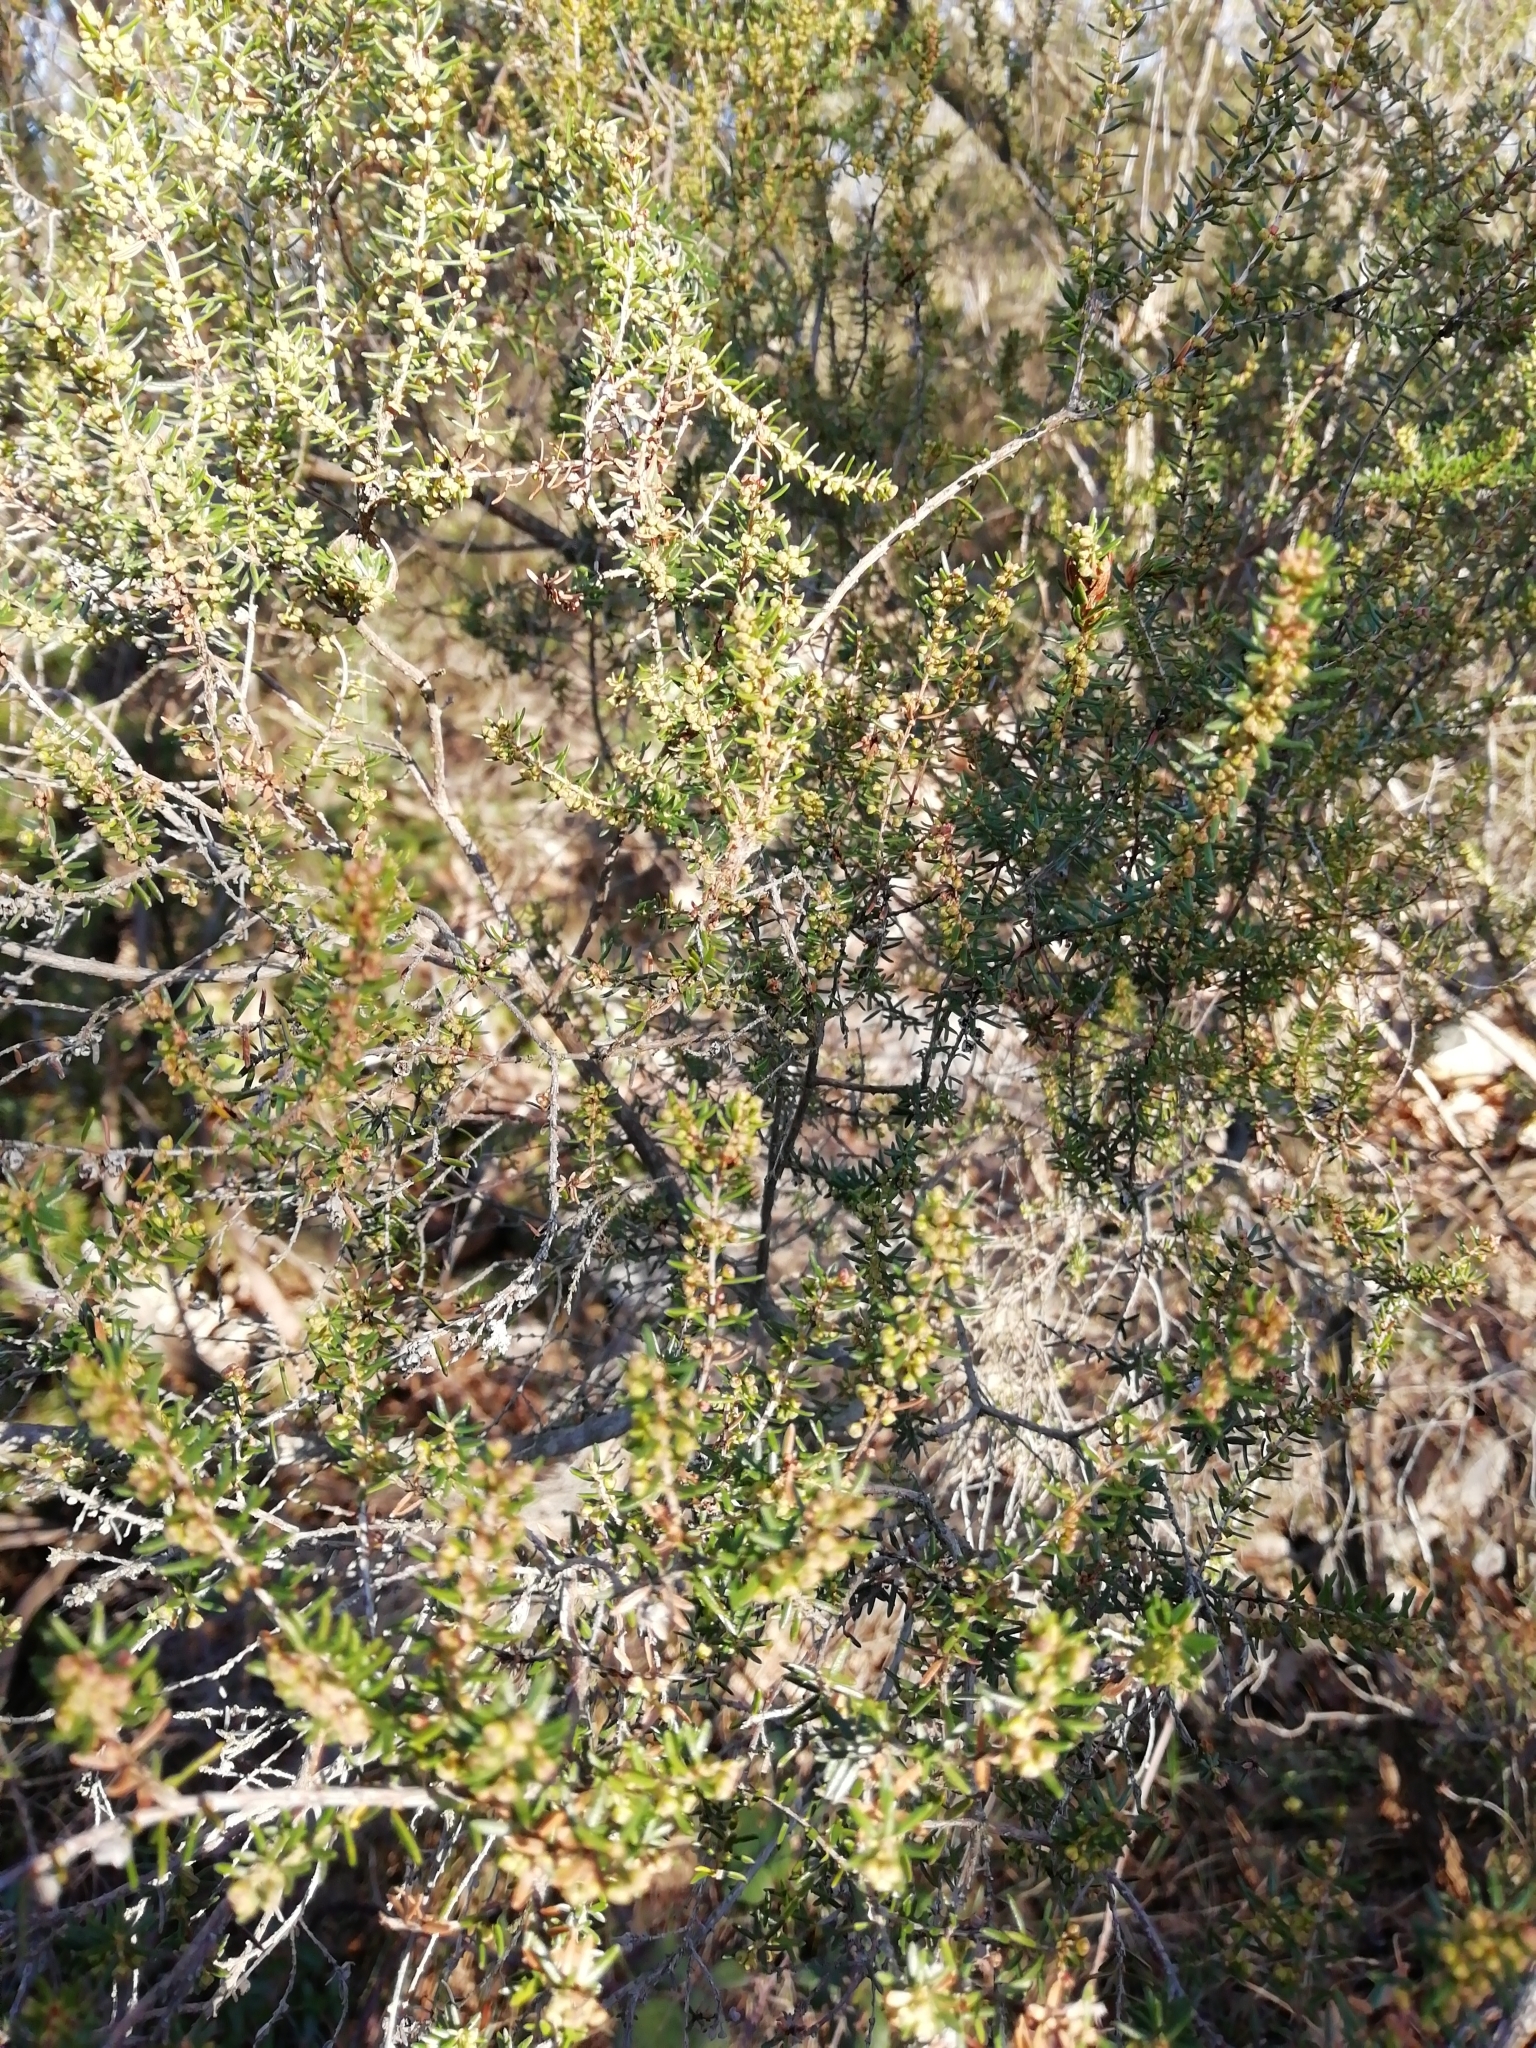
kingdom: Plantae
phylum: Tracheophyta
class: Magnoliopsida
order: Ericales
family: Ericaceae
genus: Erica
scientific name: Erica arborea
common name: Tree heath
